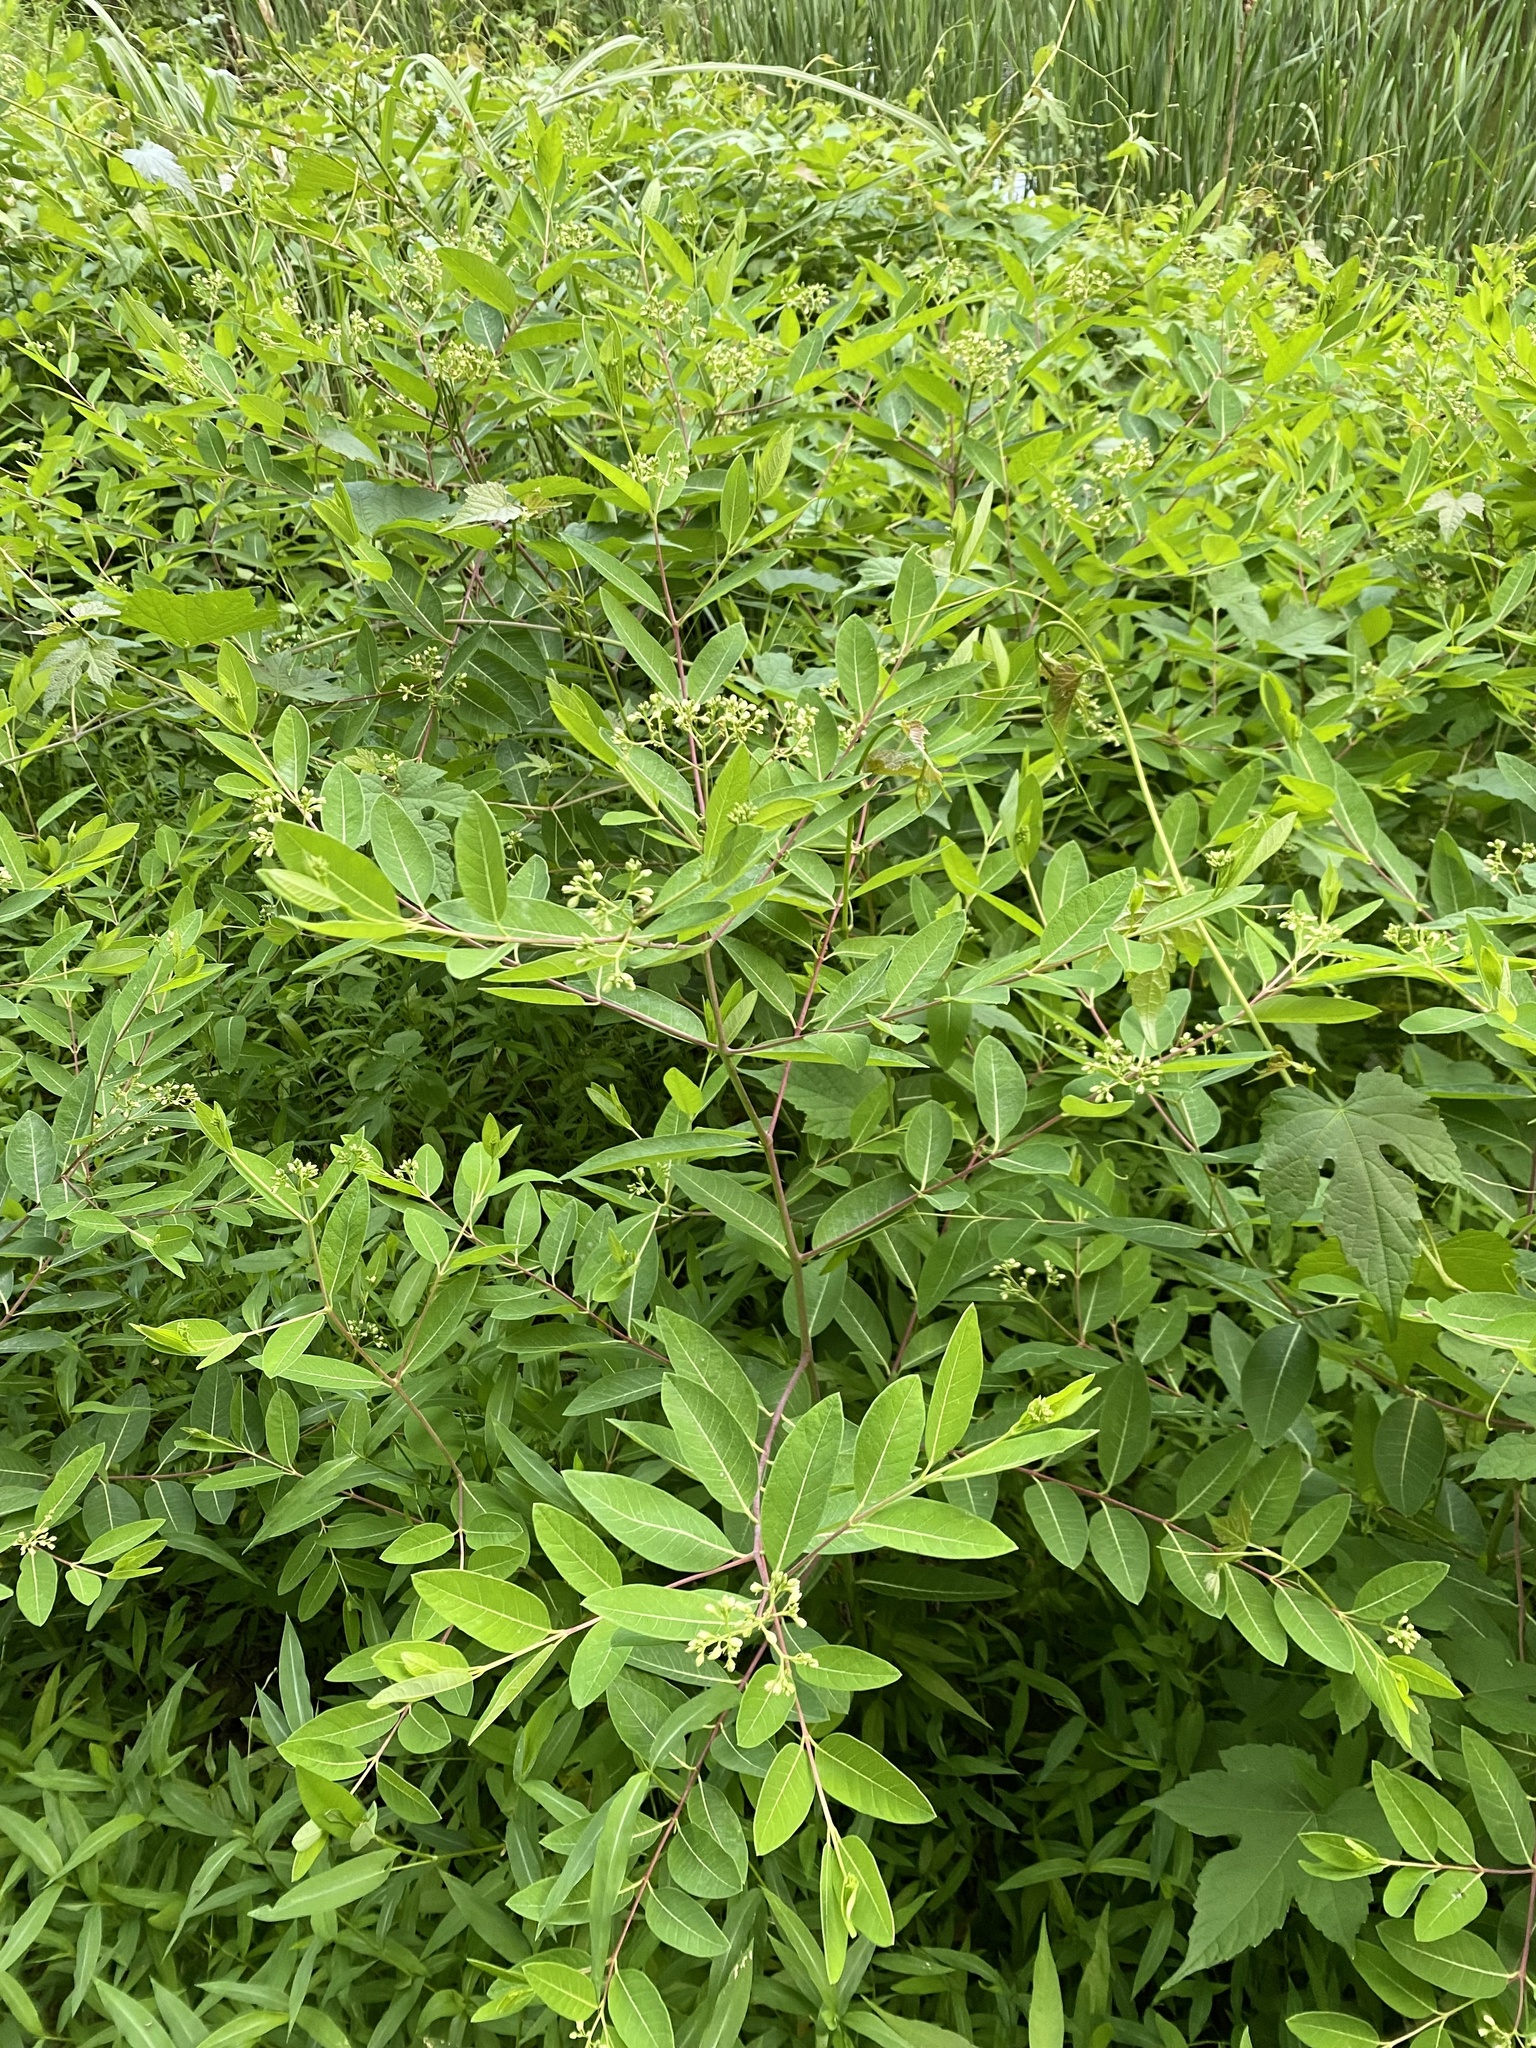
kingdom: Plantae
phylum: Tracheophyta
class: Magnoliopsida
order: Gentianales
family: Apocynaceae
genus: Apocynum
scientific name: Apocynum cannabinum
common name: Hemp dogbane
